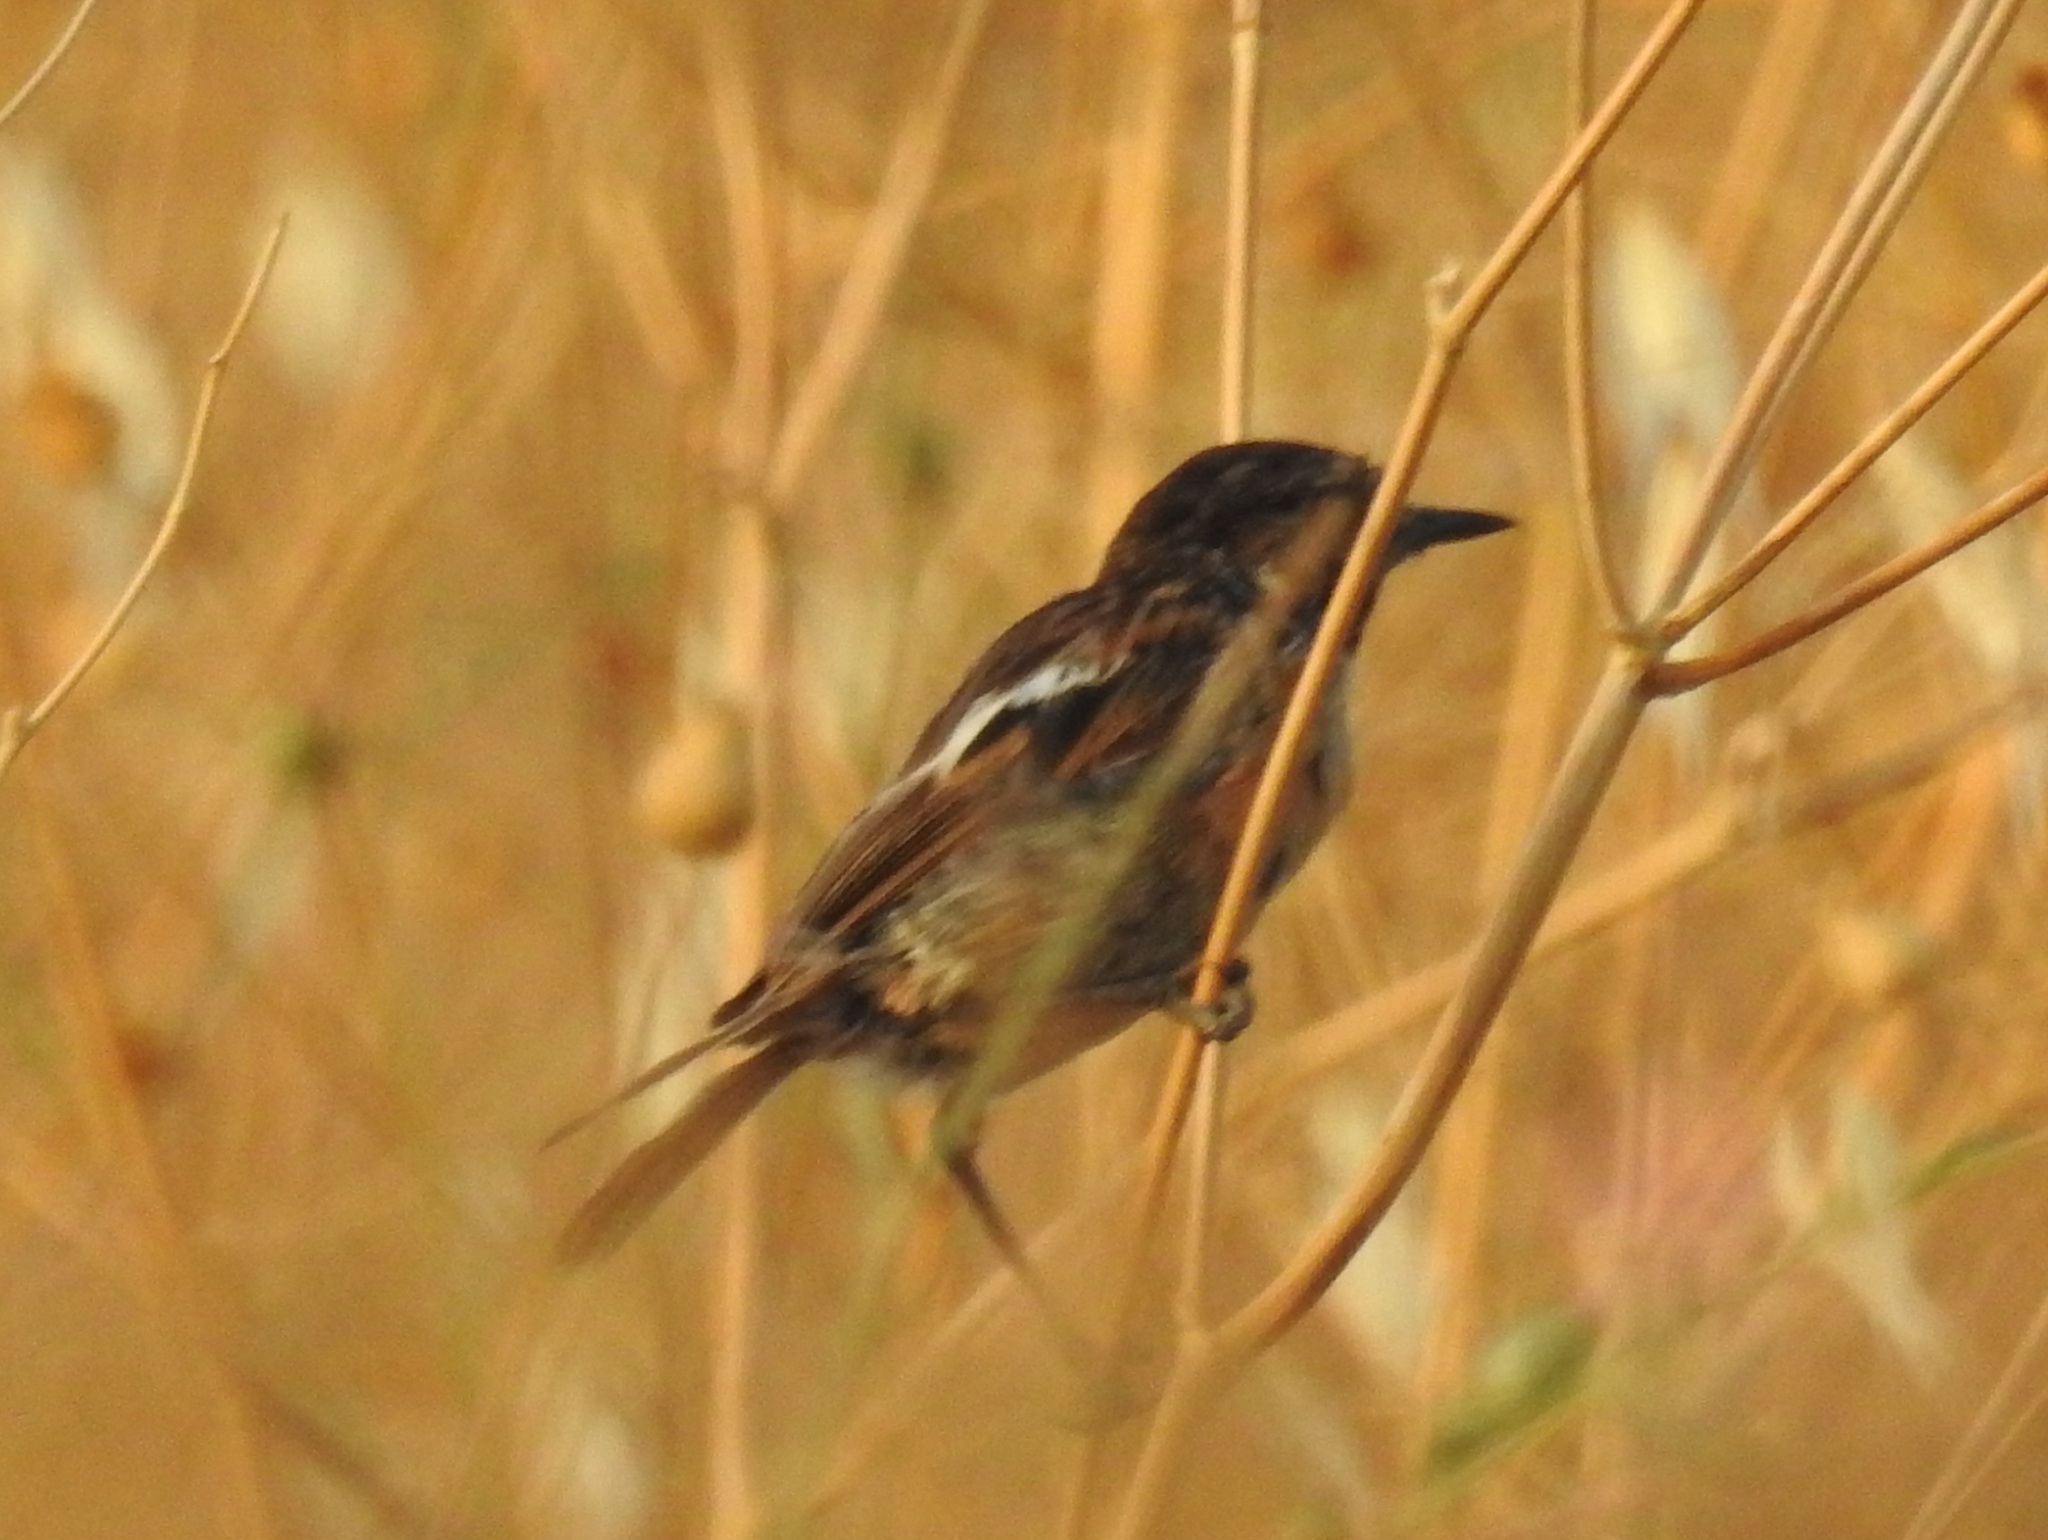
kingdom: Animalia
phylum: Chordata
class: Aves
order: Passeriformes
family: Muscicapidae
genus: Saxicola
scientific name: Saxicola rubicola
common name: European stonechat
